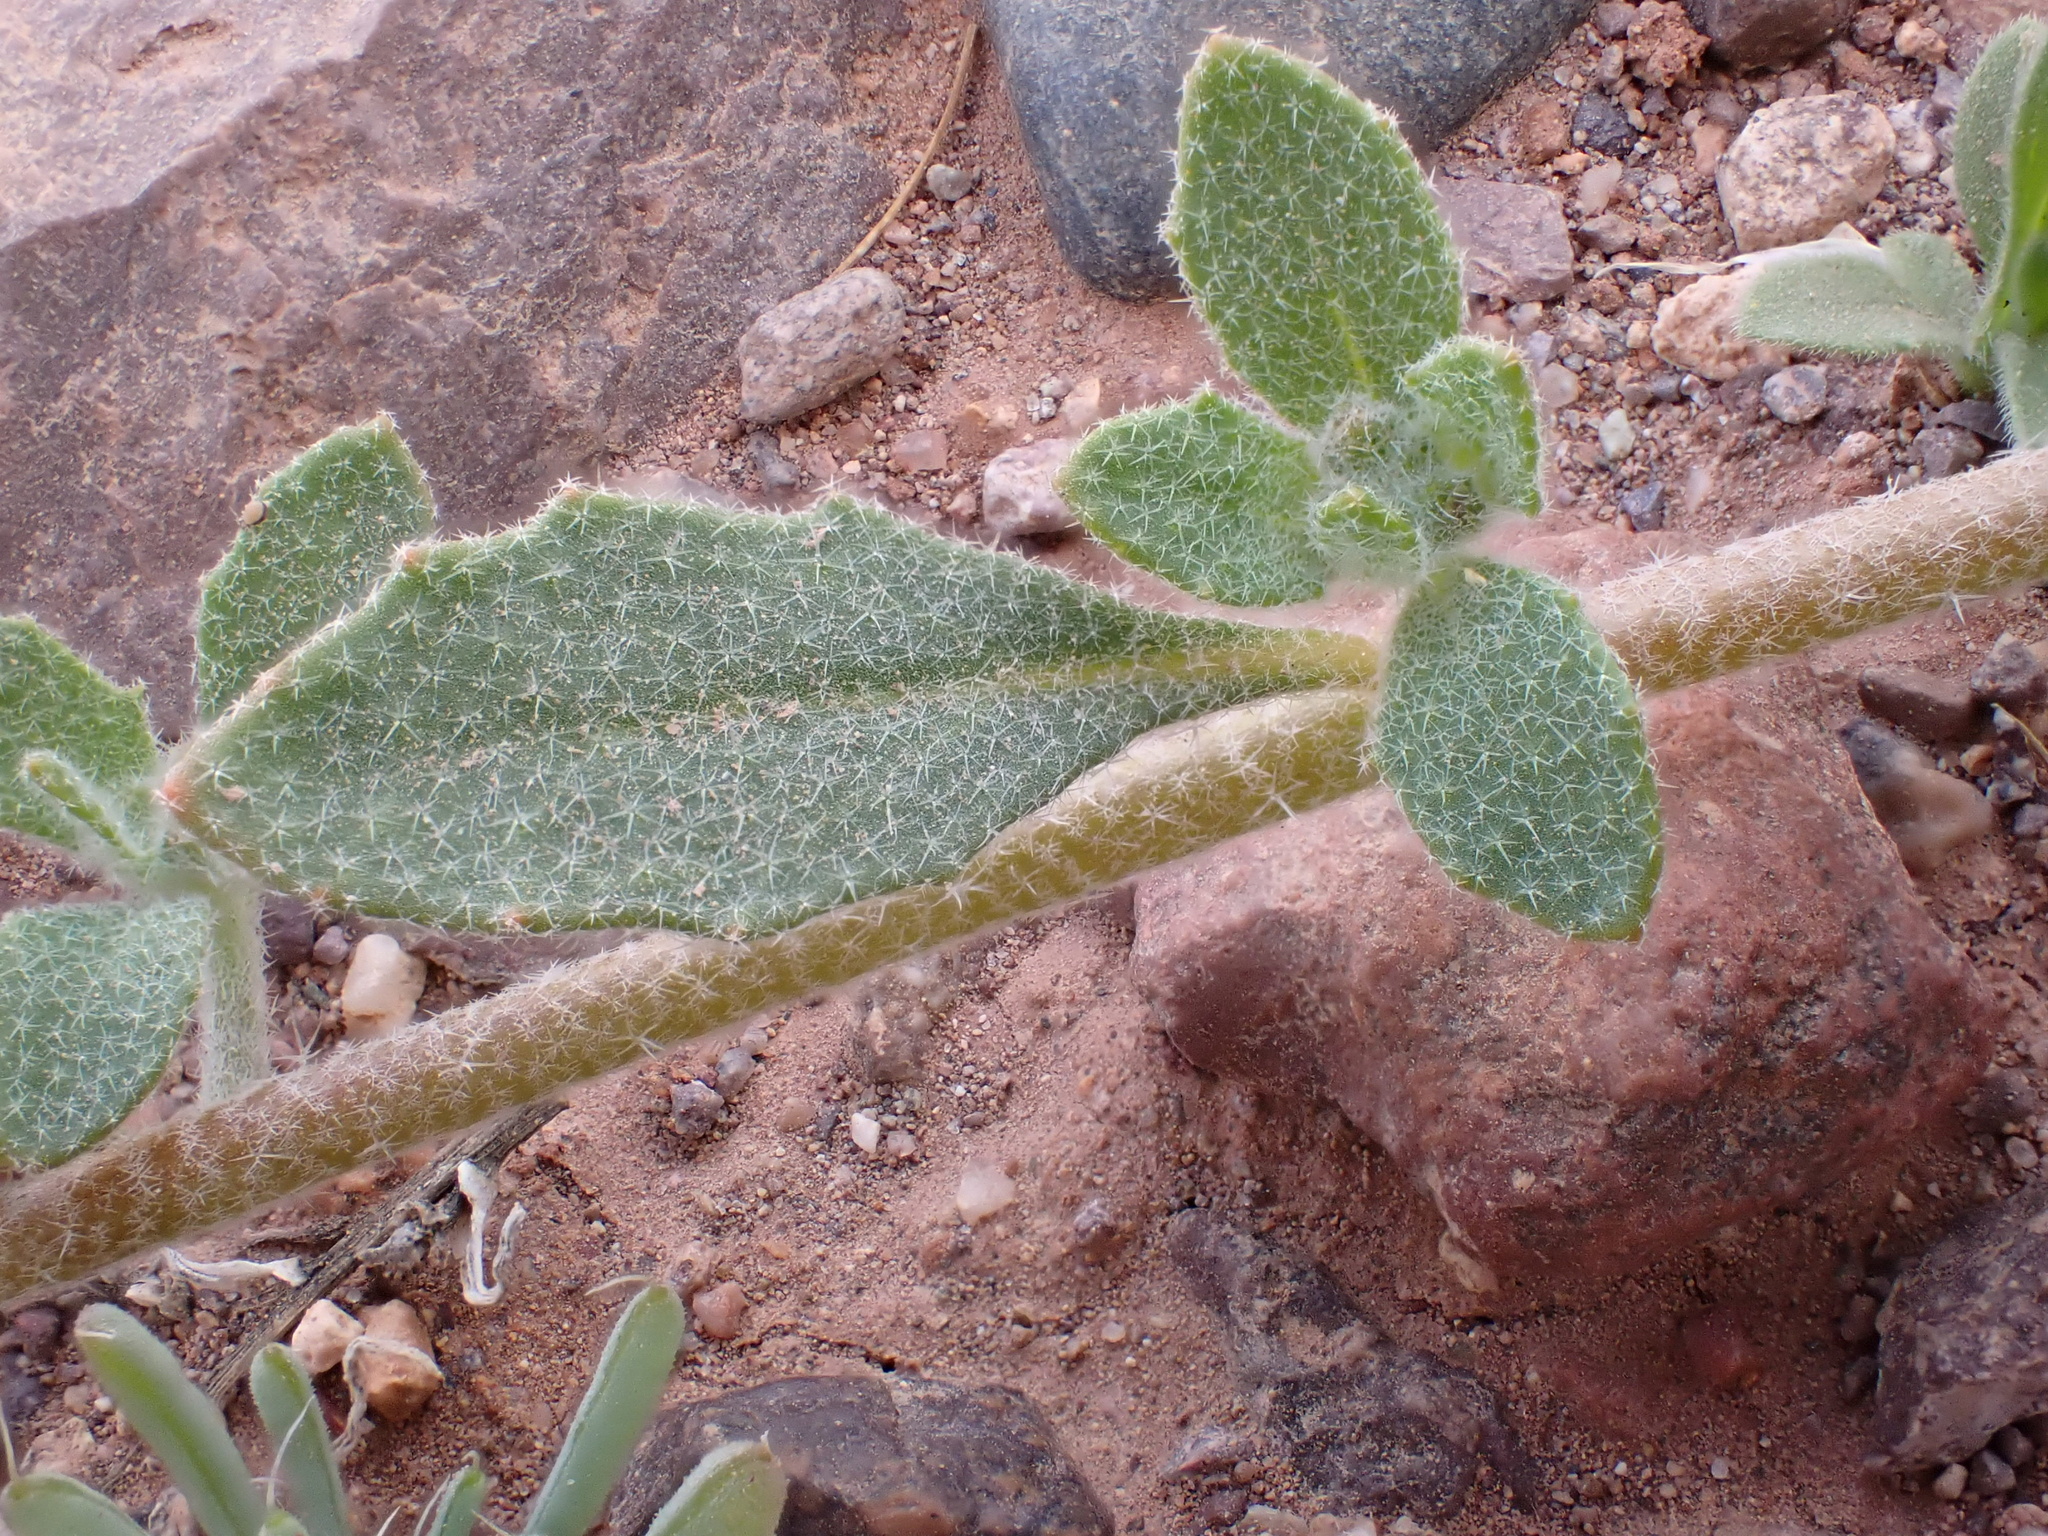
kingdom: Plantae
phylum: Tracheophyta
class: Magnoliopsida
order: Brassicales
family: Brassicaceae
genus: Morettia
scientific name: Morettia canescens
